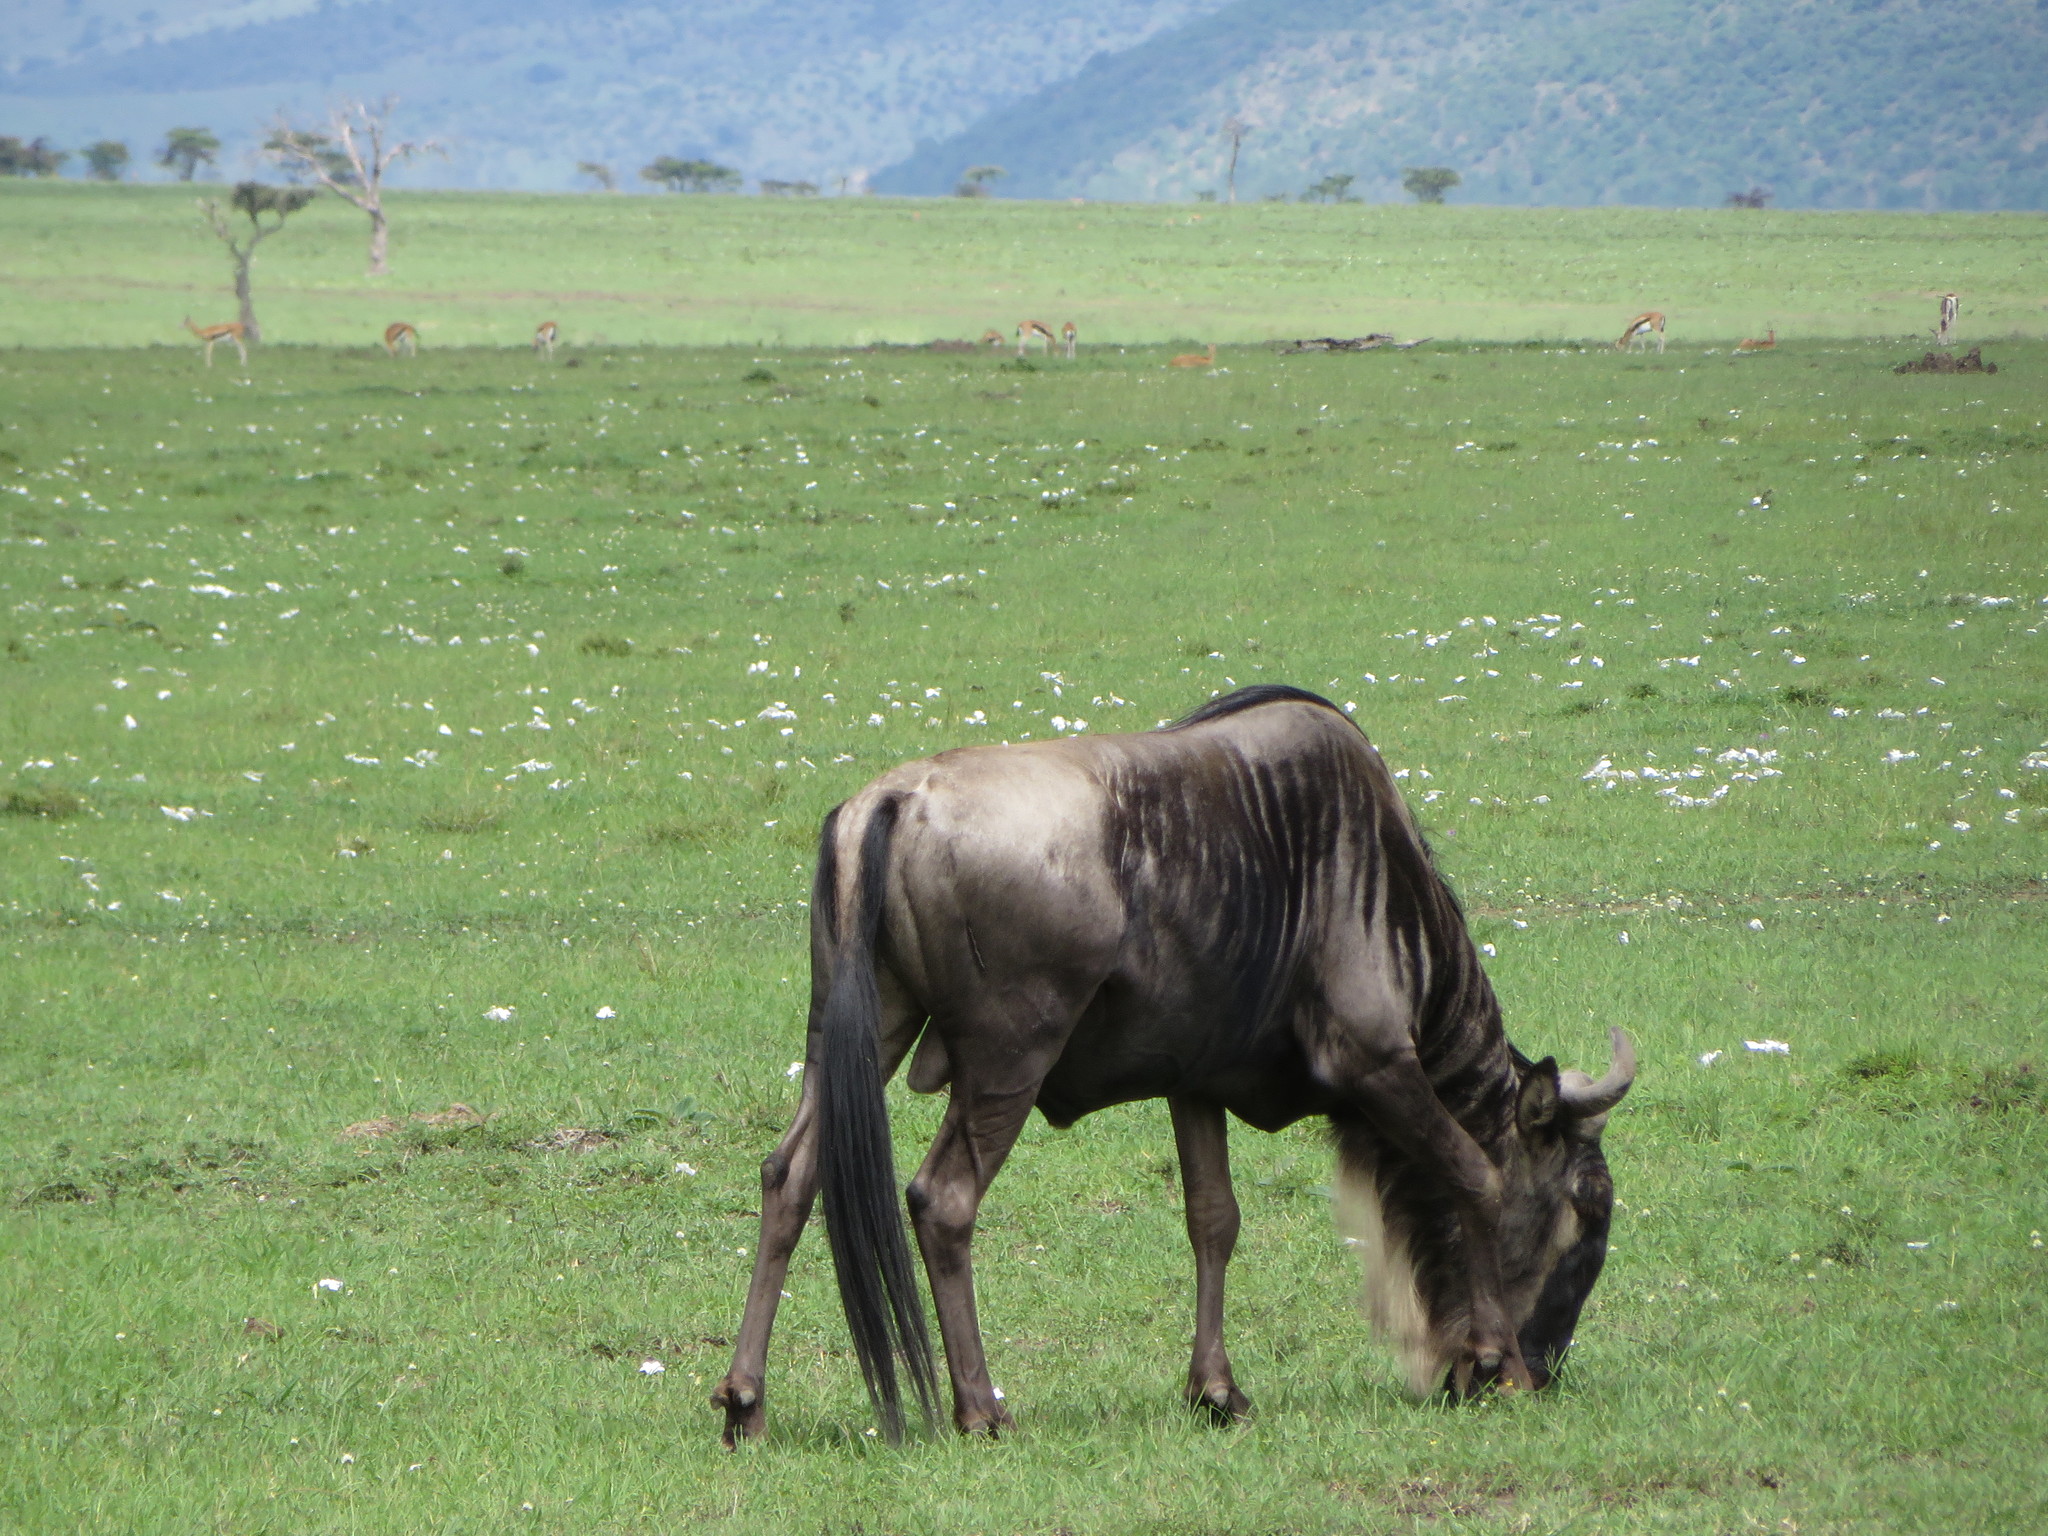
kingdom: Animalia
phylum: Chordata
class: Mammalia
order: Artiodactyla
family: Bovidae
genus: Connochaetes
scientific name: Connochaetes taurinus
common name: Blue wildebeest
